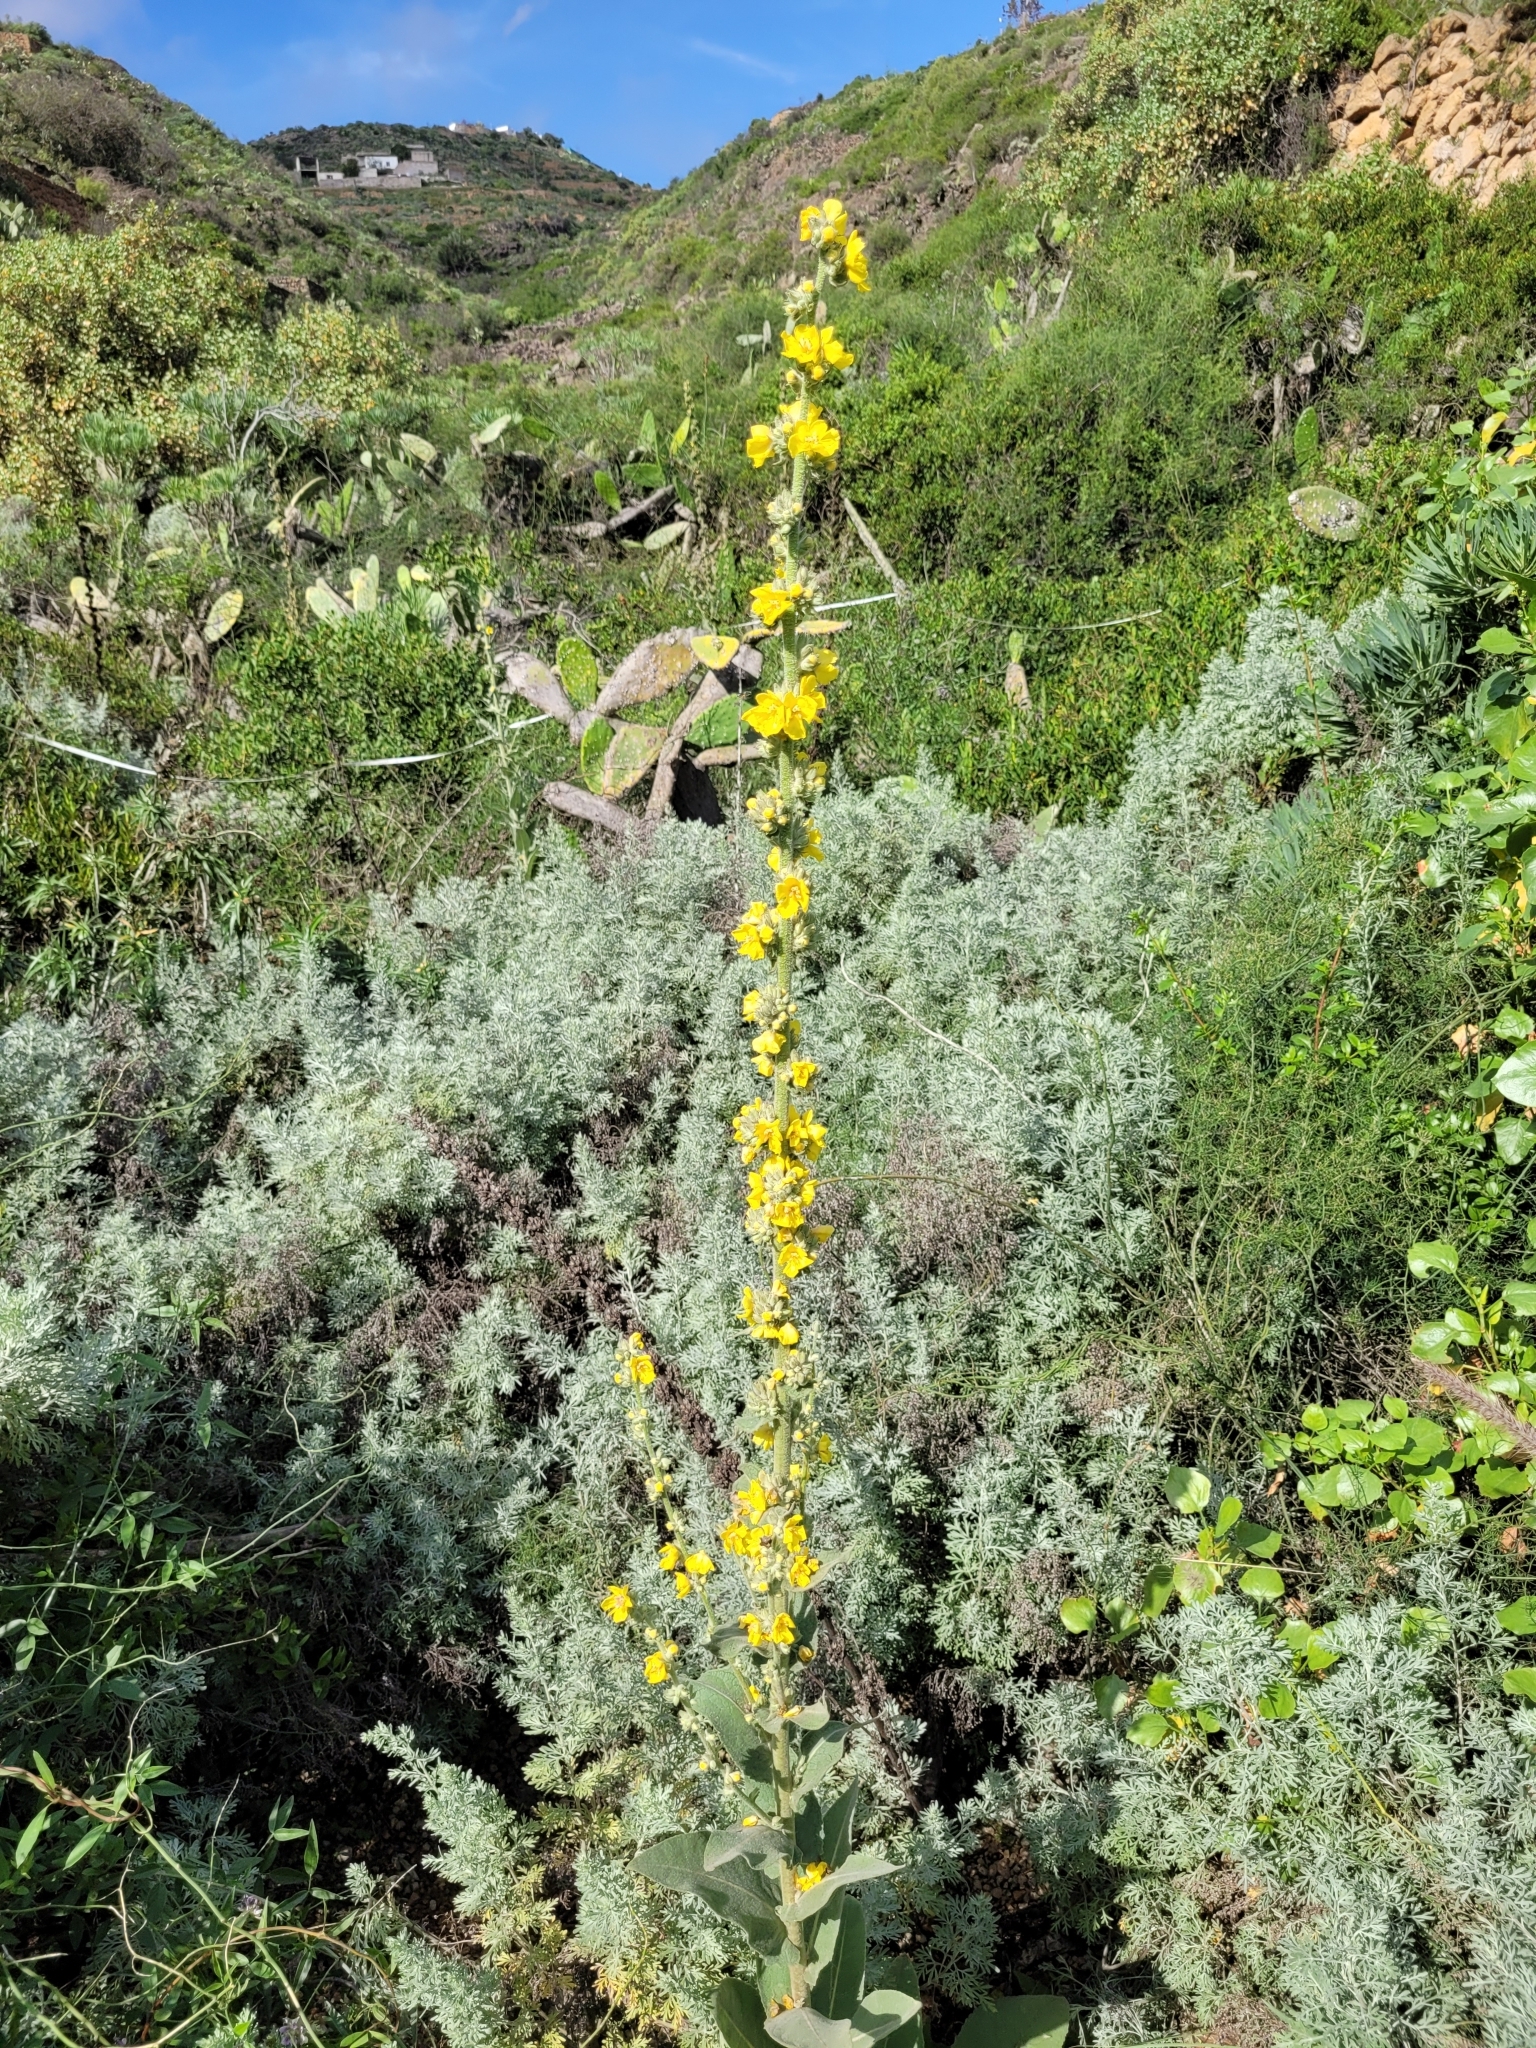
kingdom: Plantae
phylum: Tracheophyta
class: Magnoliopsida
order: Lamiales
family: Scrophulariaceae
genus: Verbascum
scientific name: Verbascum virgatum
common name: Twiggy mullein
